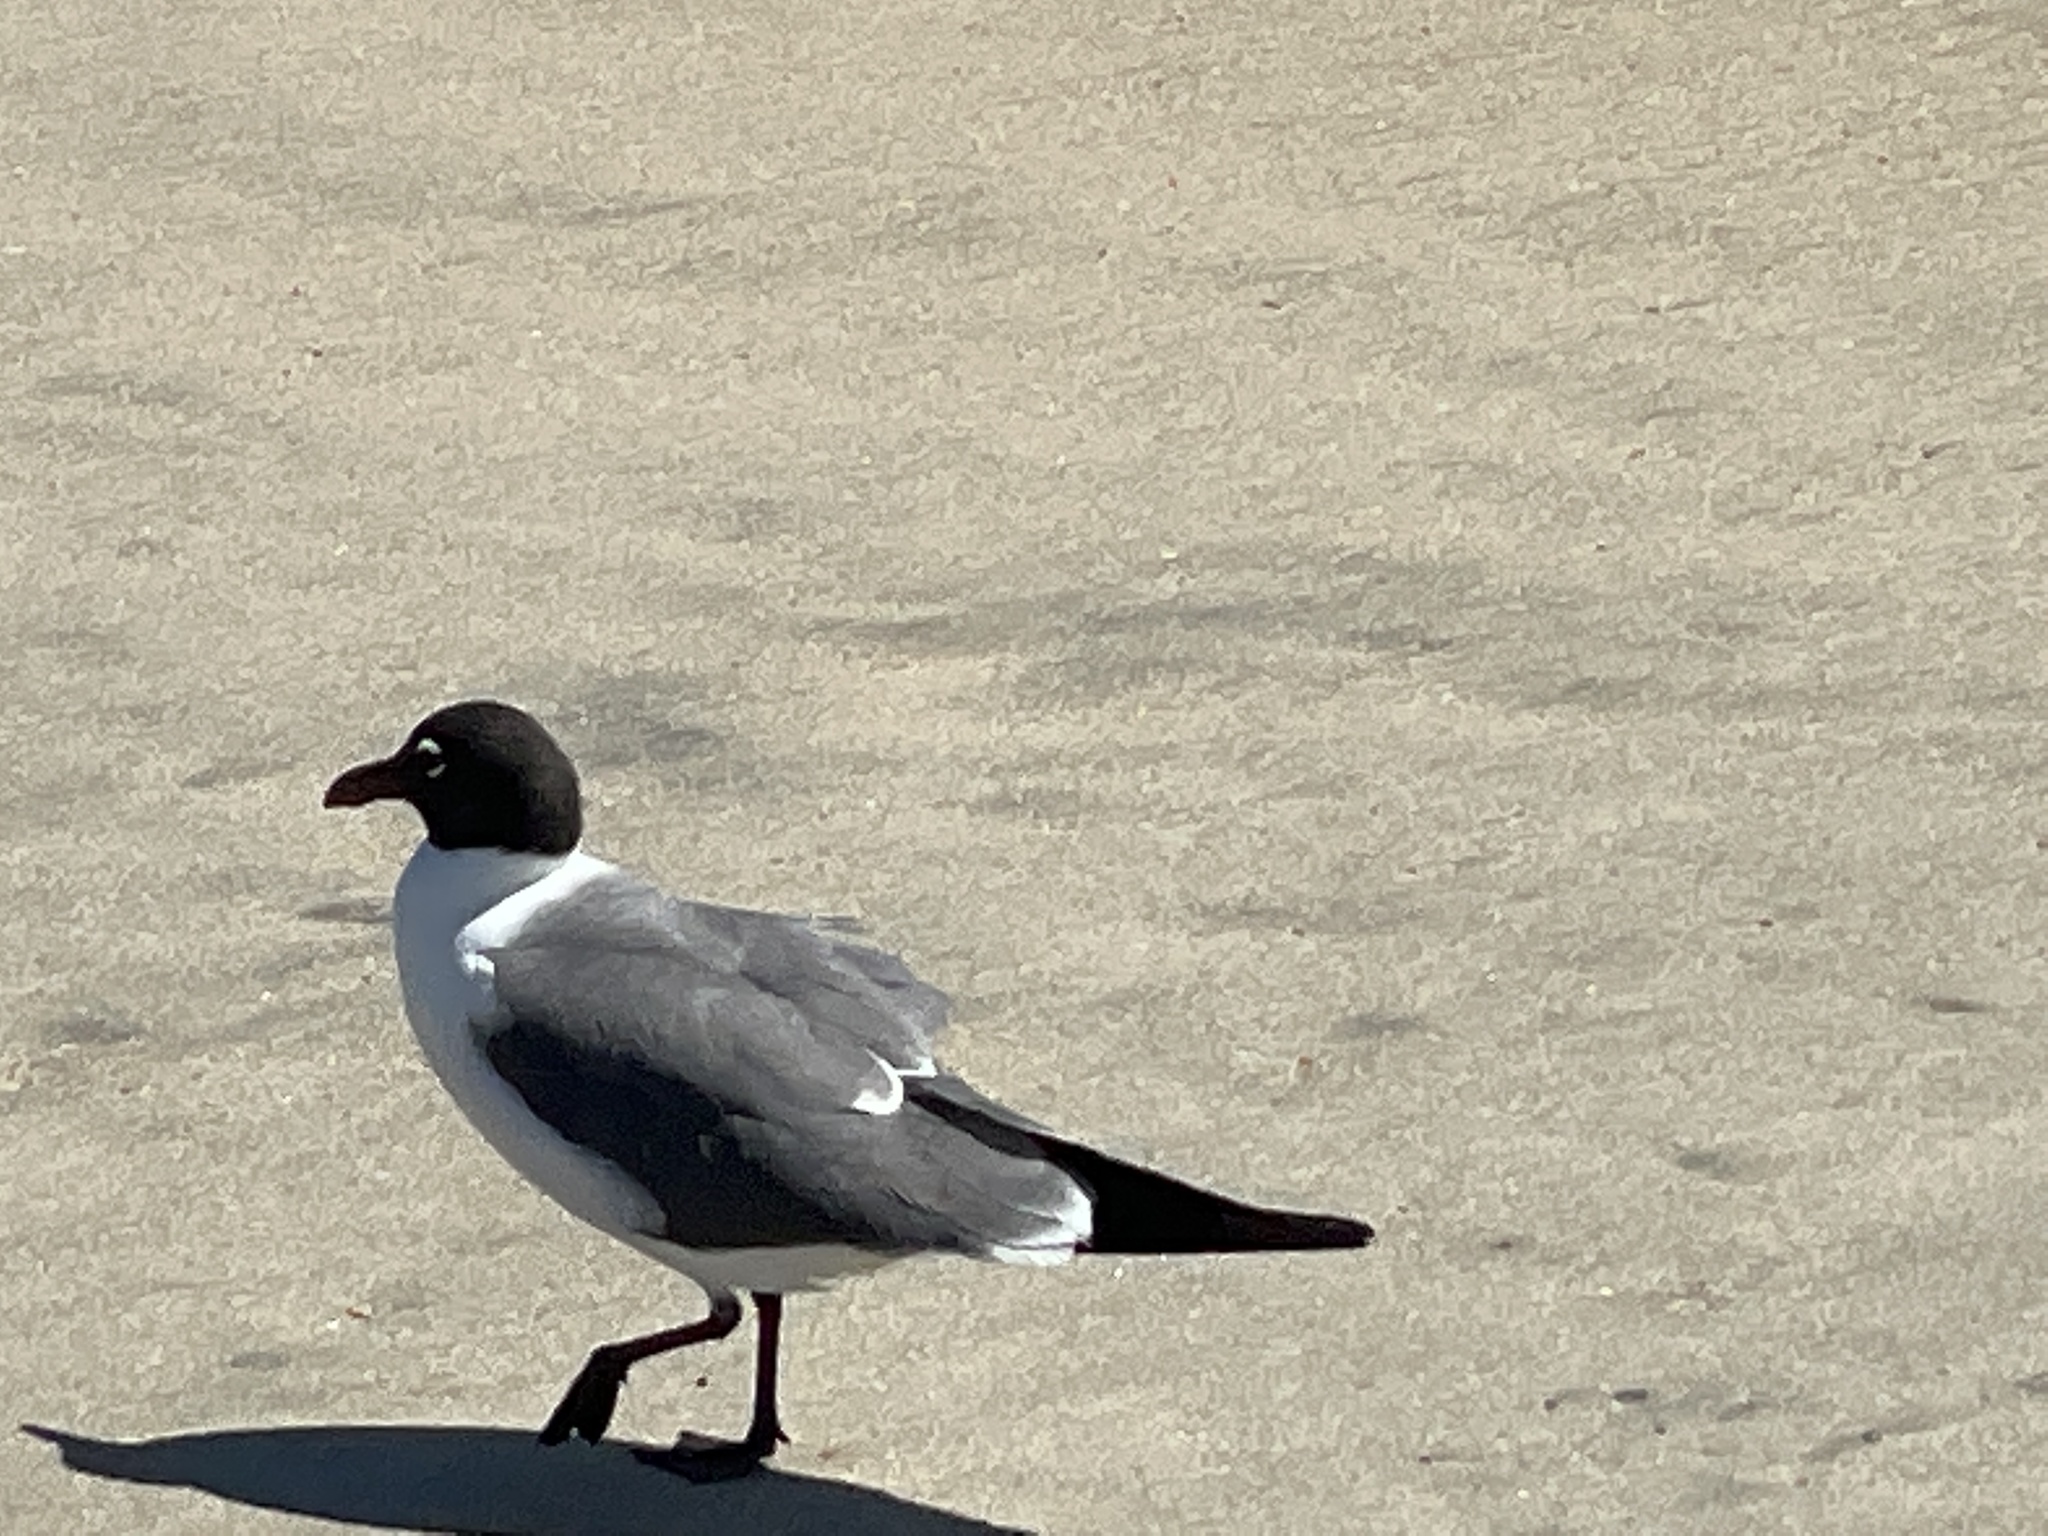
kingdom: Animalia
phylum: Chordata
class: Aves
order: Charadriiformes
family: Laridae
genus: Leucophaeus
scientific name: Leucophaeus atricilla
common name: Laughing gull
